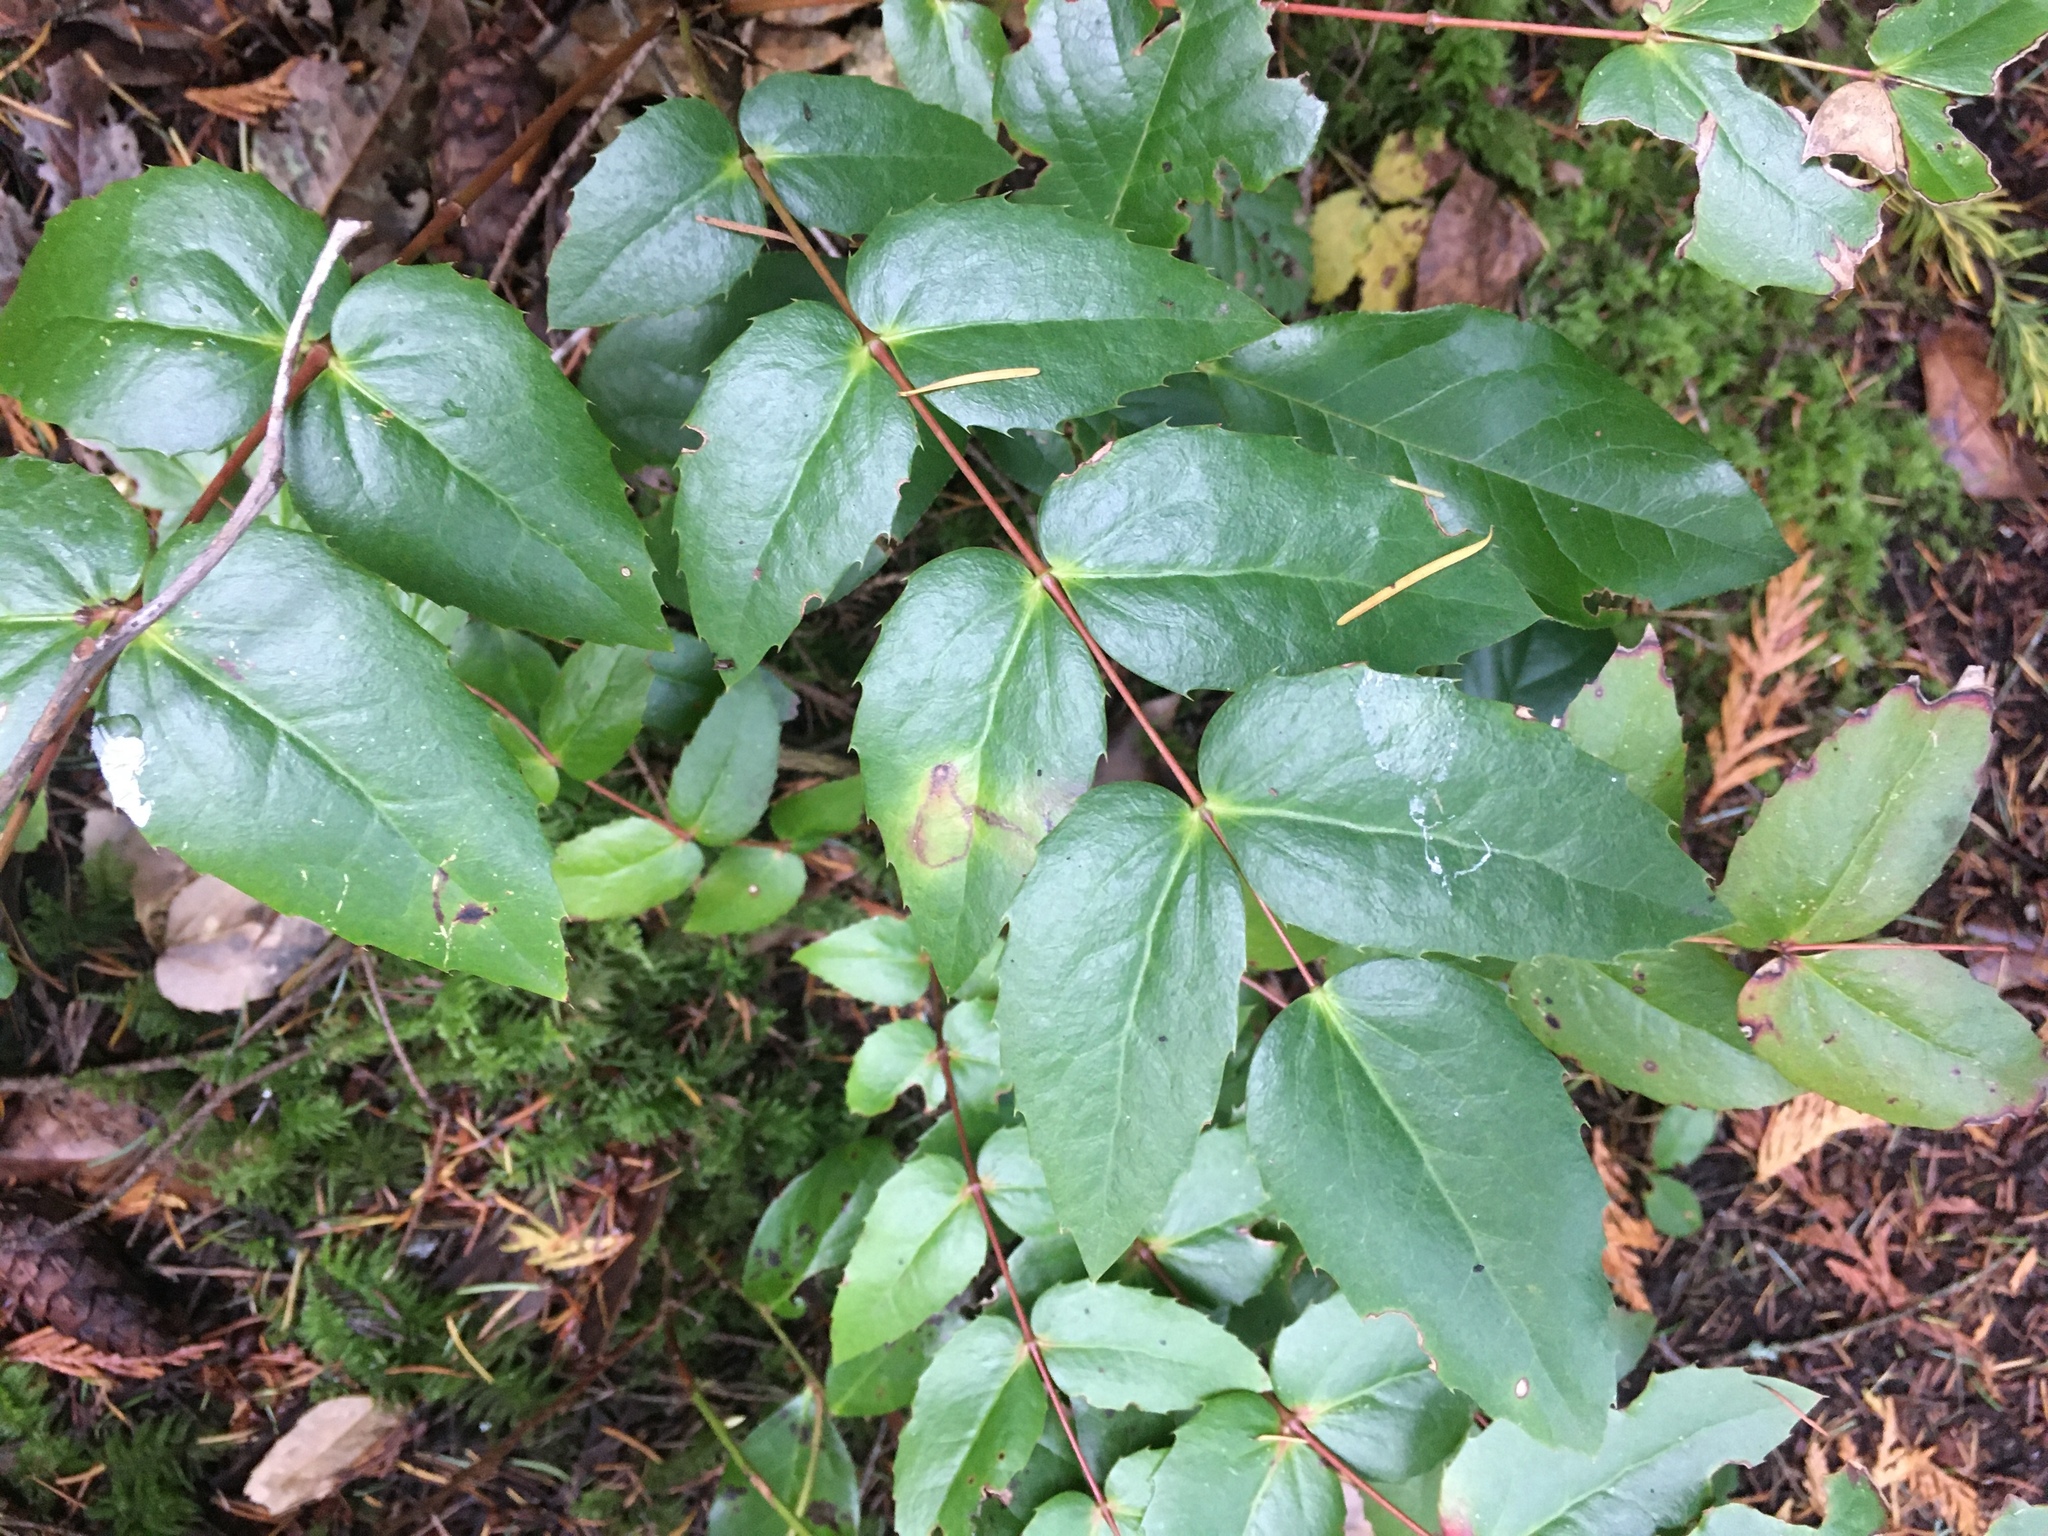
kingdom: Plantae
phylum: Tracheophyta
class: Magnoliopsida
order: Ranunculales
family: Berberidaceae
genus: Mahonia
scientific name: Mahonia nervosa
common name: Cascade oregon-grape
